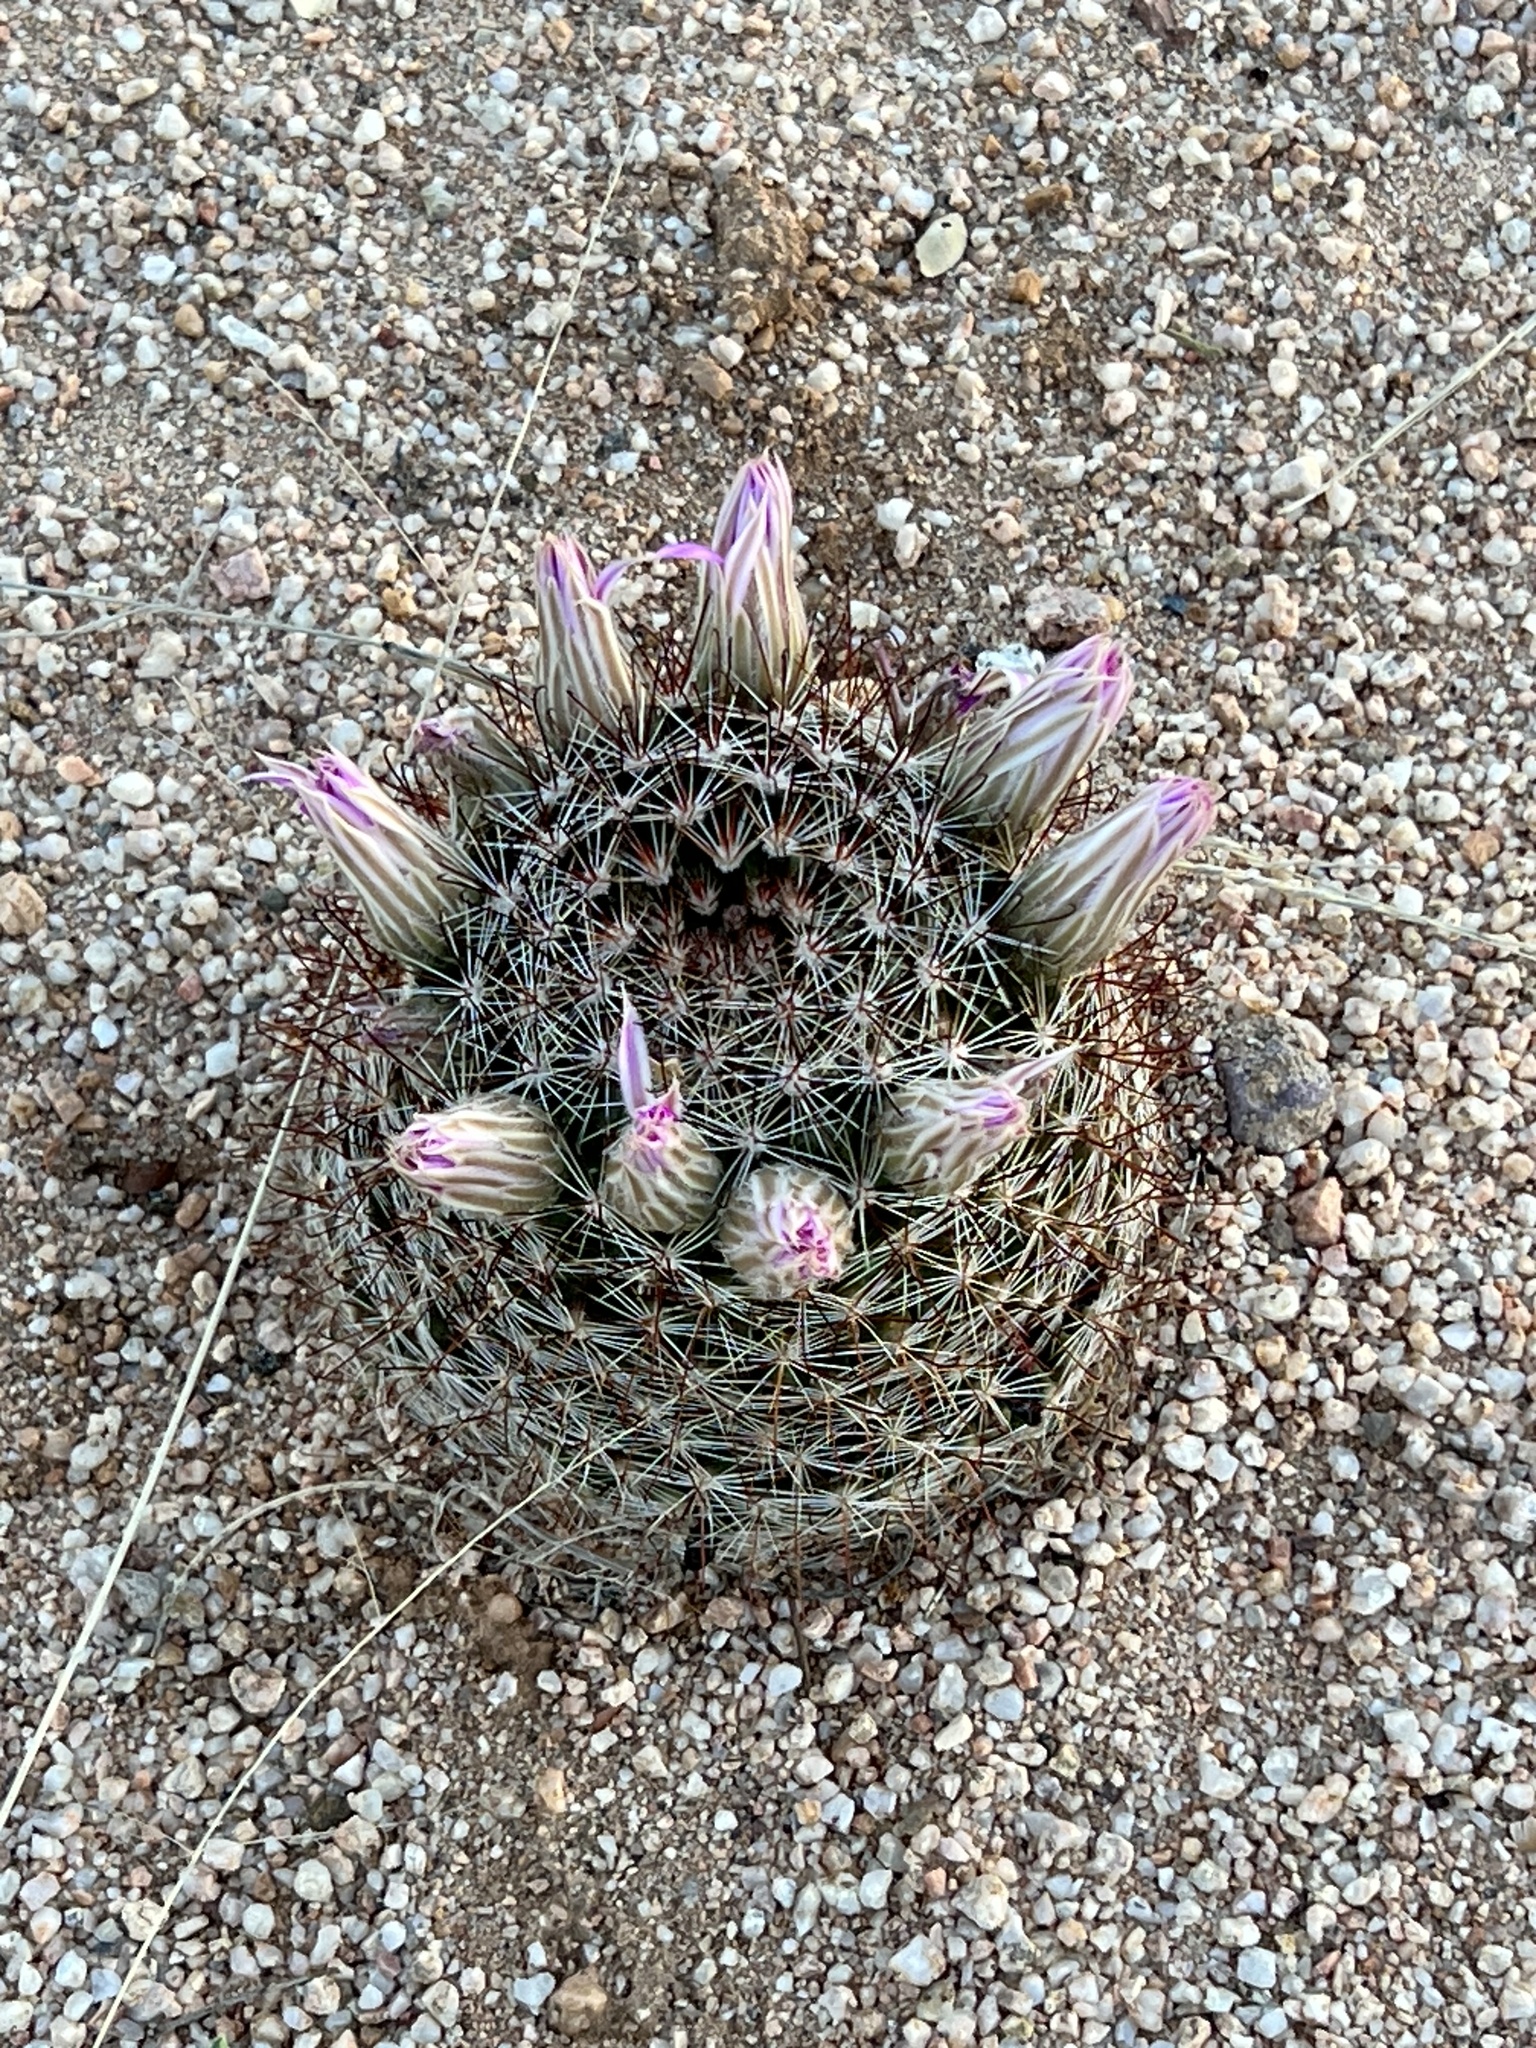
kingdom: Plantae
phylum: Tracheophyta
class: Magnoliopsida
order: Caryophyllales
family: Cactaceae
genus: Cochemiea
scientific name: Cochemiea wrightii
